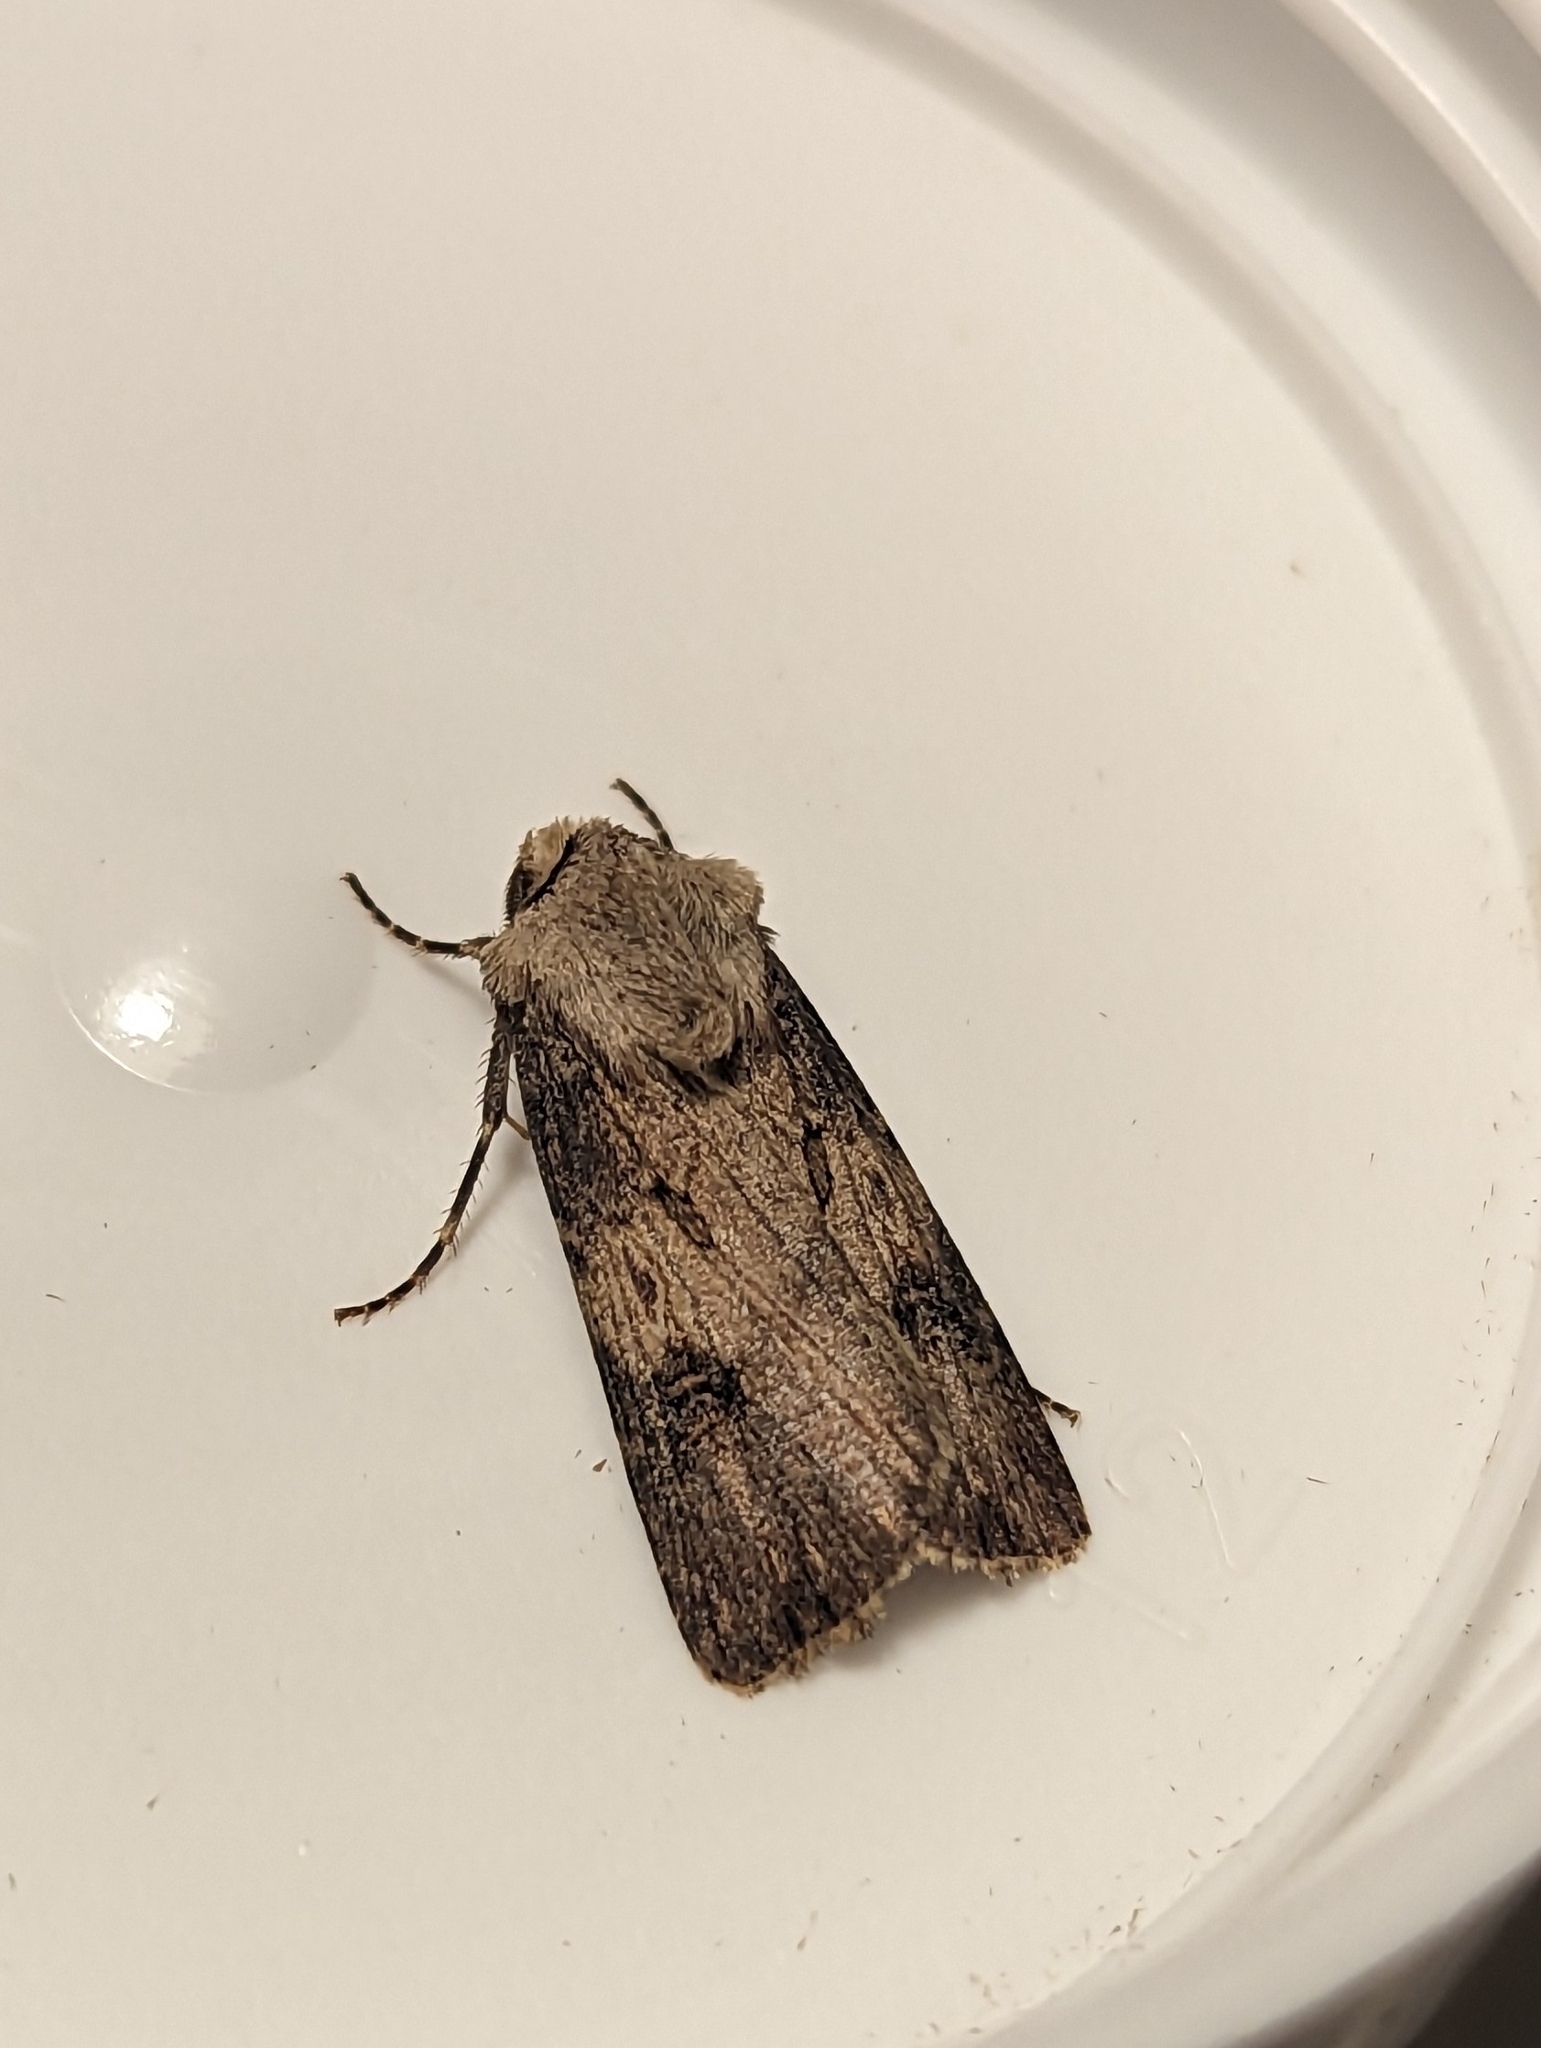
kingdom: Animalia
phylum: Arthropoda
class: Insecta
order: Lepidoptera
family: Noctuidae
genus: Agrotis
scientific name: Agrotis puta
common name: Shuttle-shaped dart
